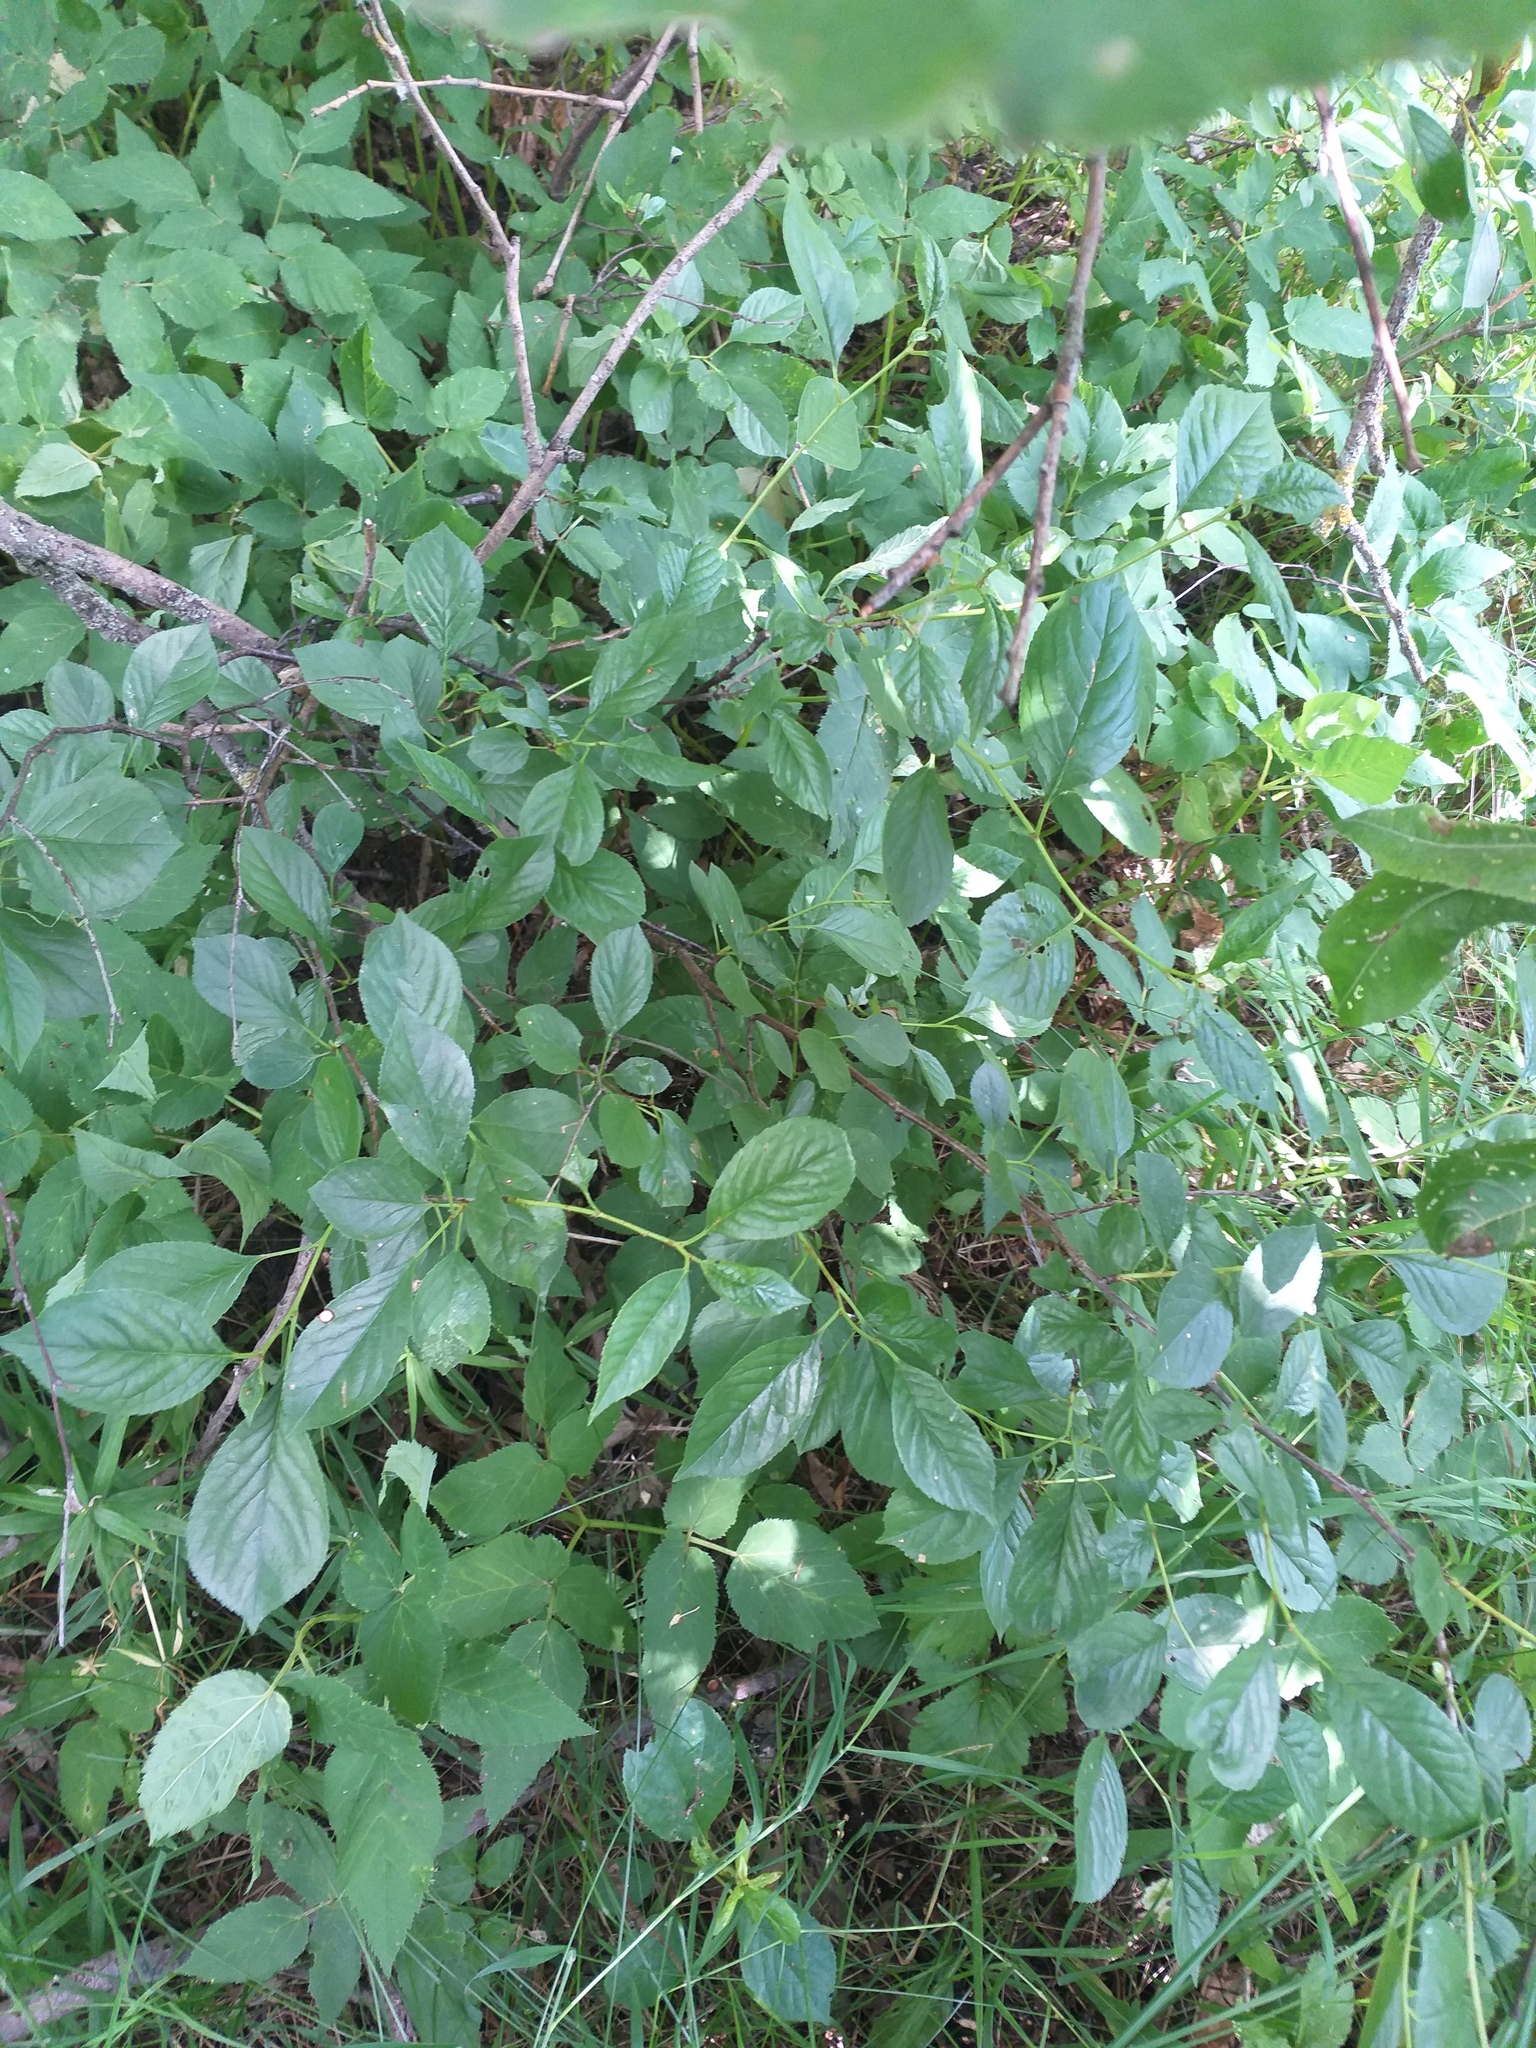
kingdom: Plantae
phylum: Tracheophyta
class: Magnoliopsida
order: Rosales
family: Rosaceae
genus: Prunus
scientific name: Prunus cerasus
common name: Morello cherry
